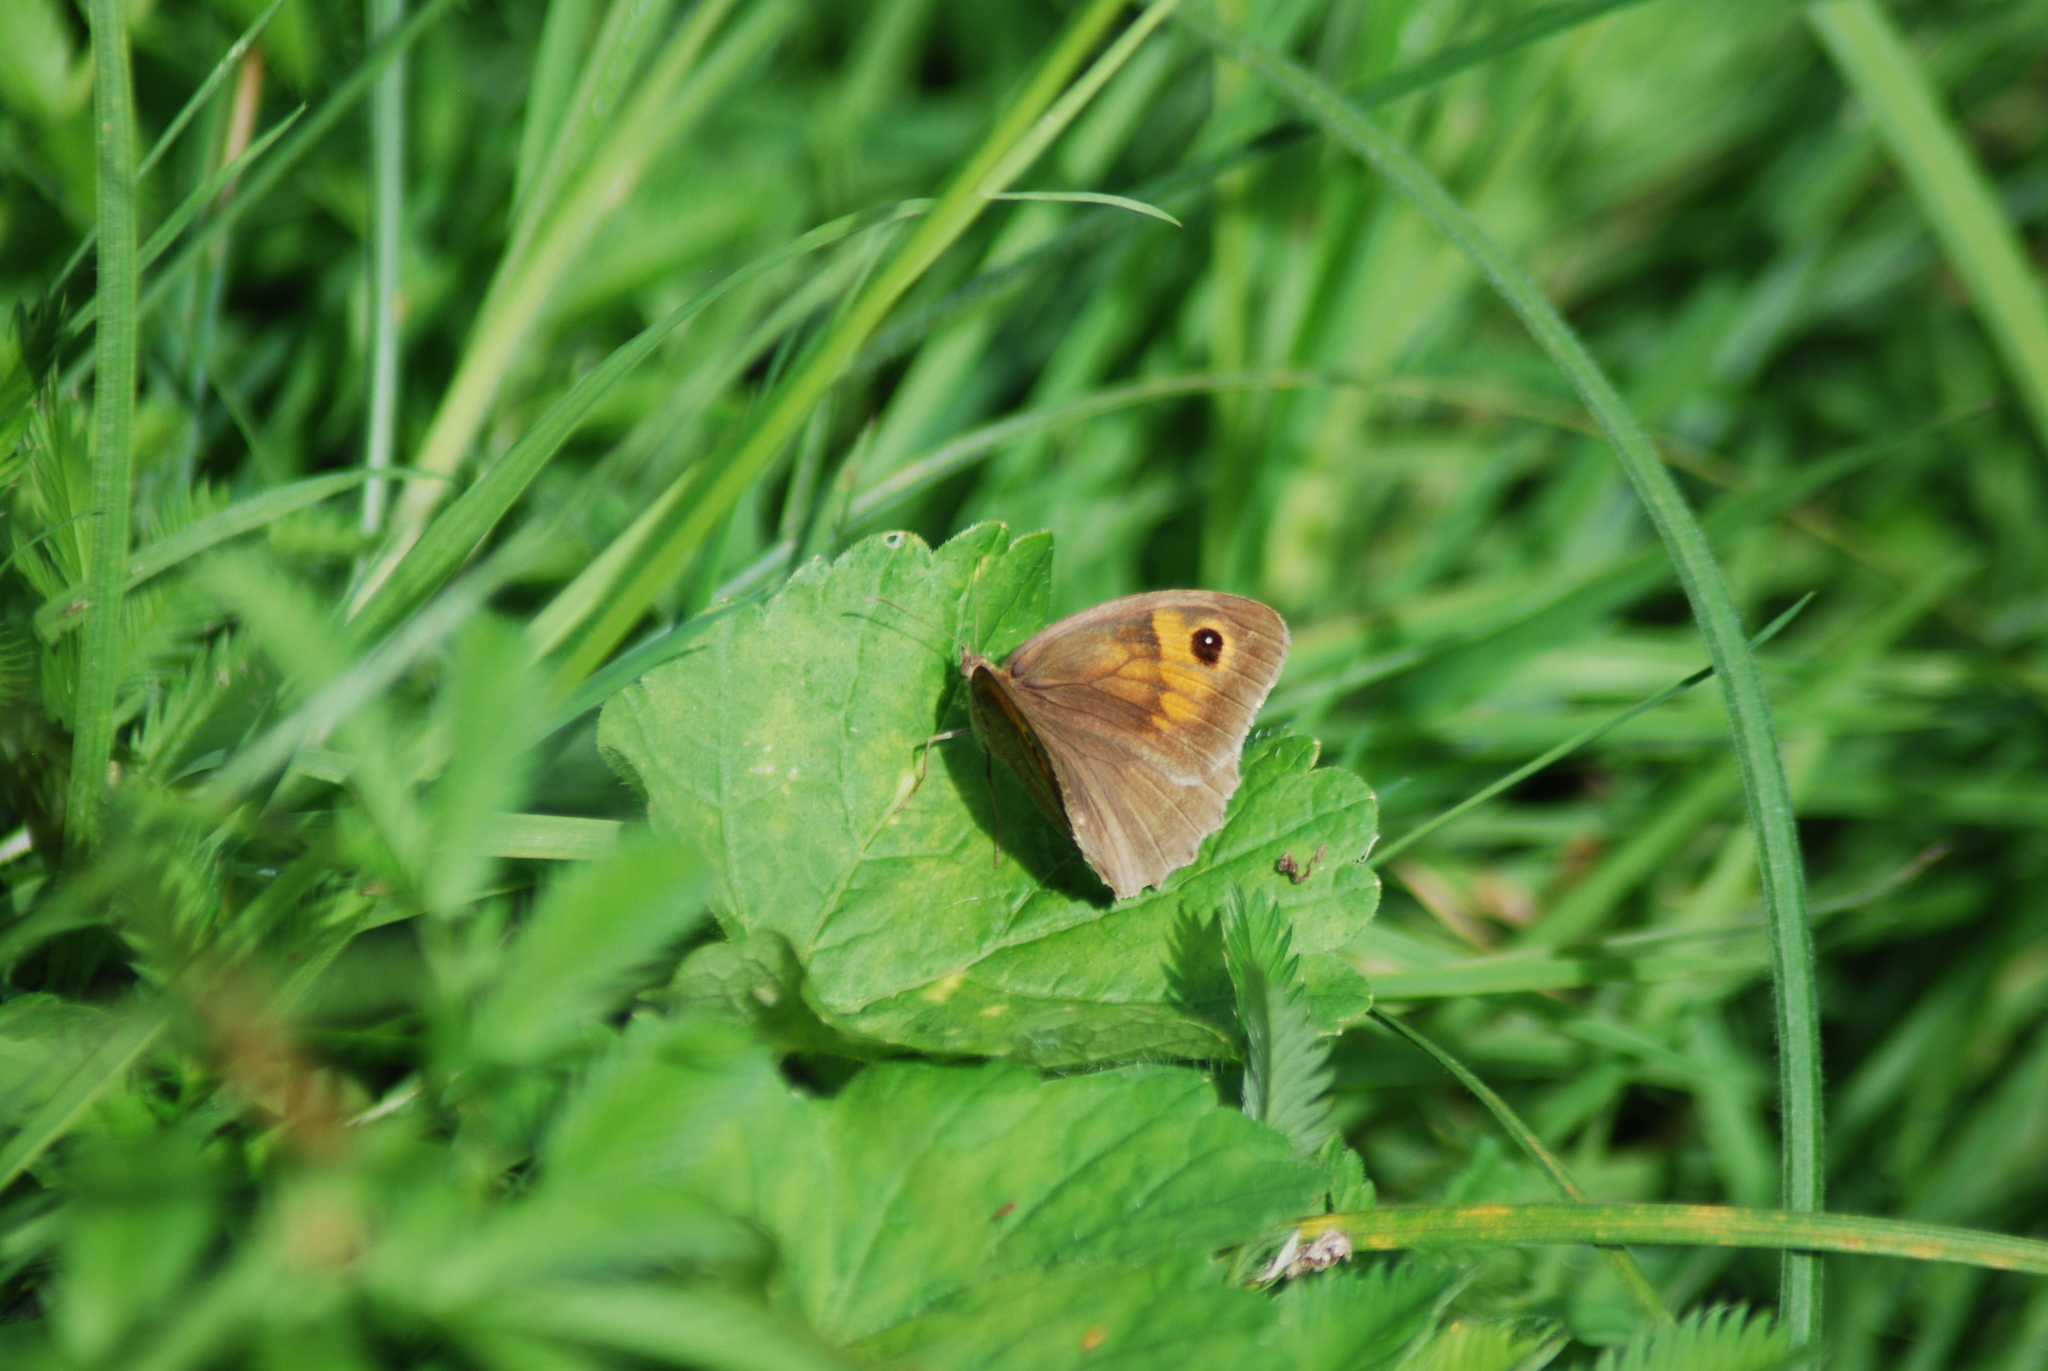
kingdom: Animalia
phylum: Arthropoda
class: Insecta
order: Lepidoptera
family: Nymphalidae
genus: Maniola
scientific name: Maniola jurtina
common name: Meadow brown
